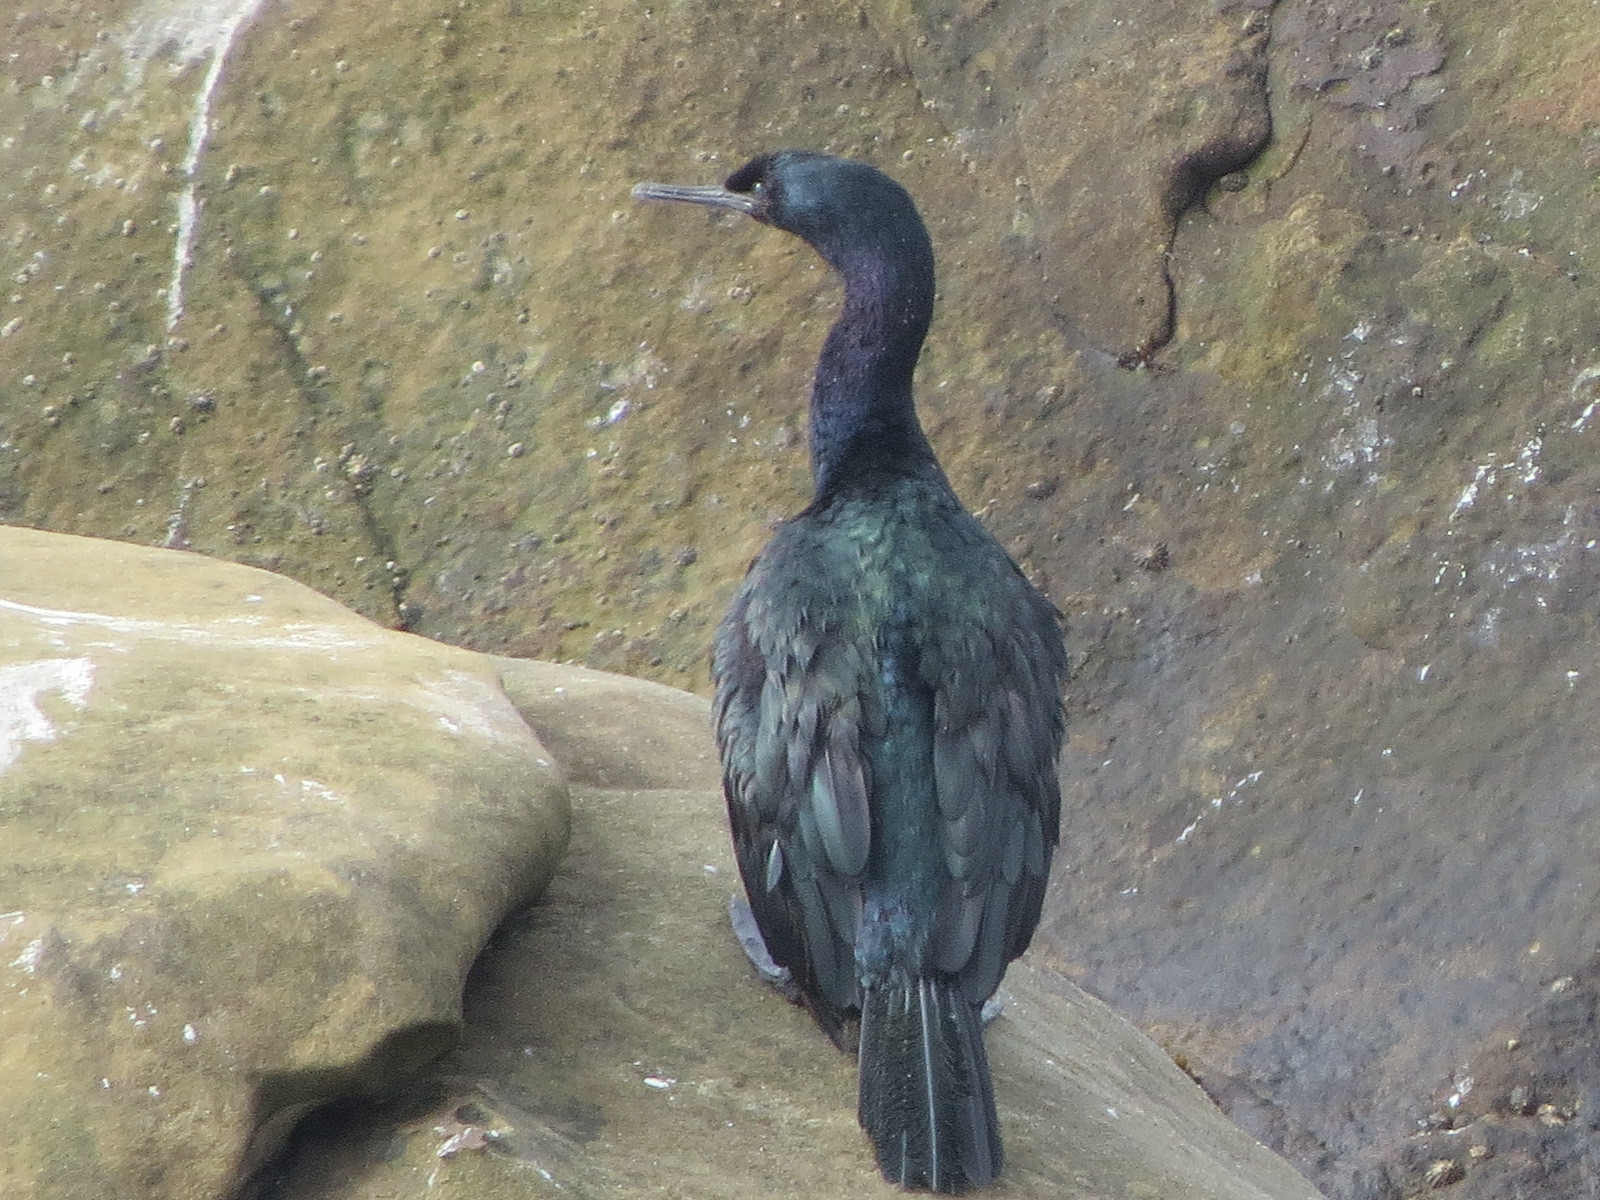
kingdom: Animalia
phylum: Chordata
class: Aves
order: Suliformes
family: Phalacrocoracidae
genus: Phalacrocorax
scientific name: Phalacrocorax pelagicus
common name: Pelagic cormorant
